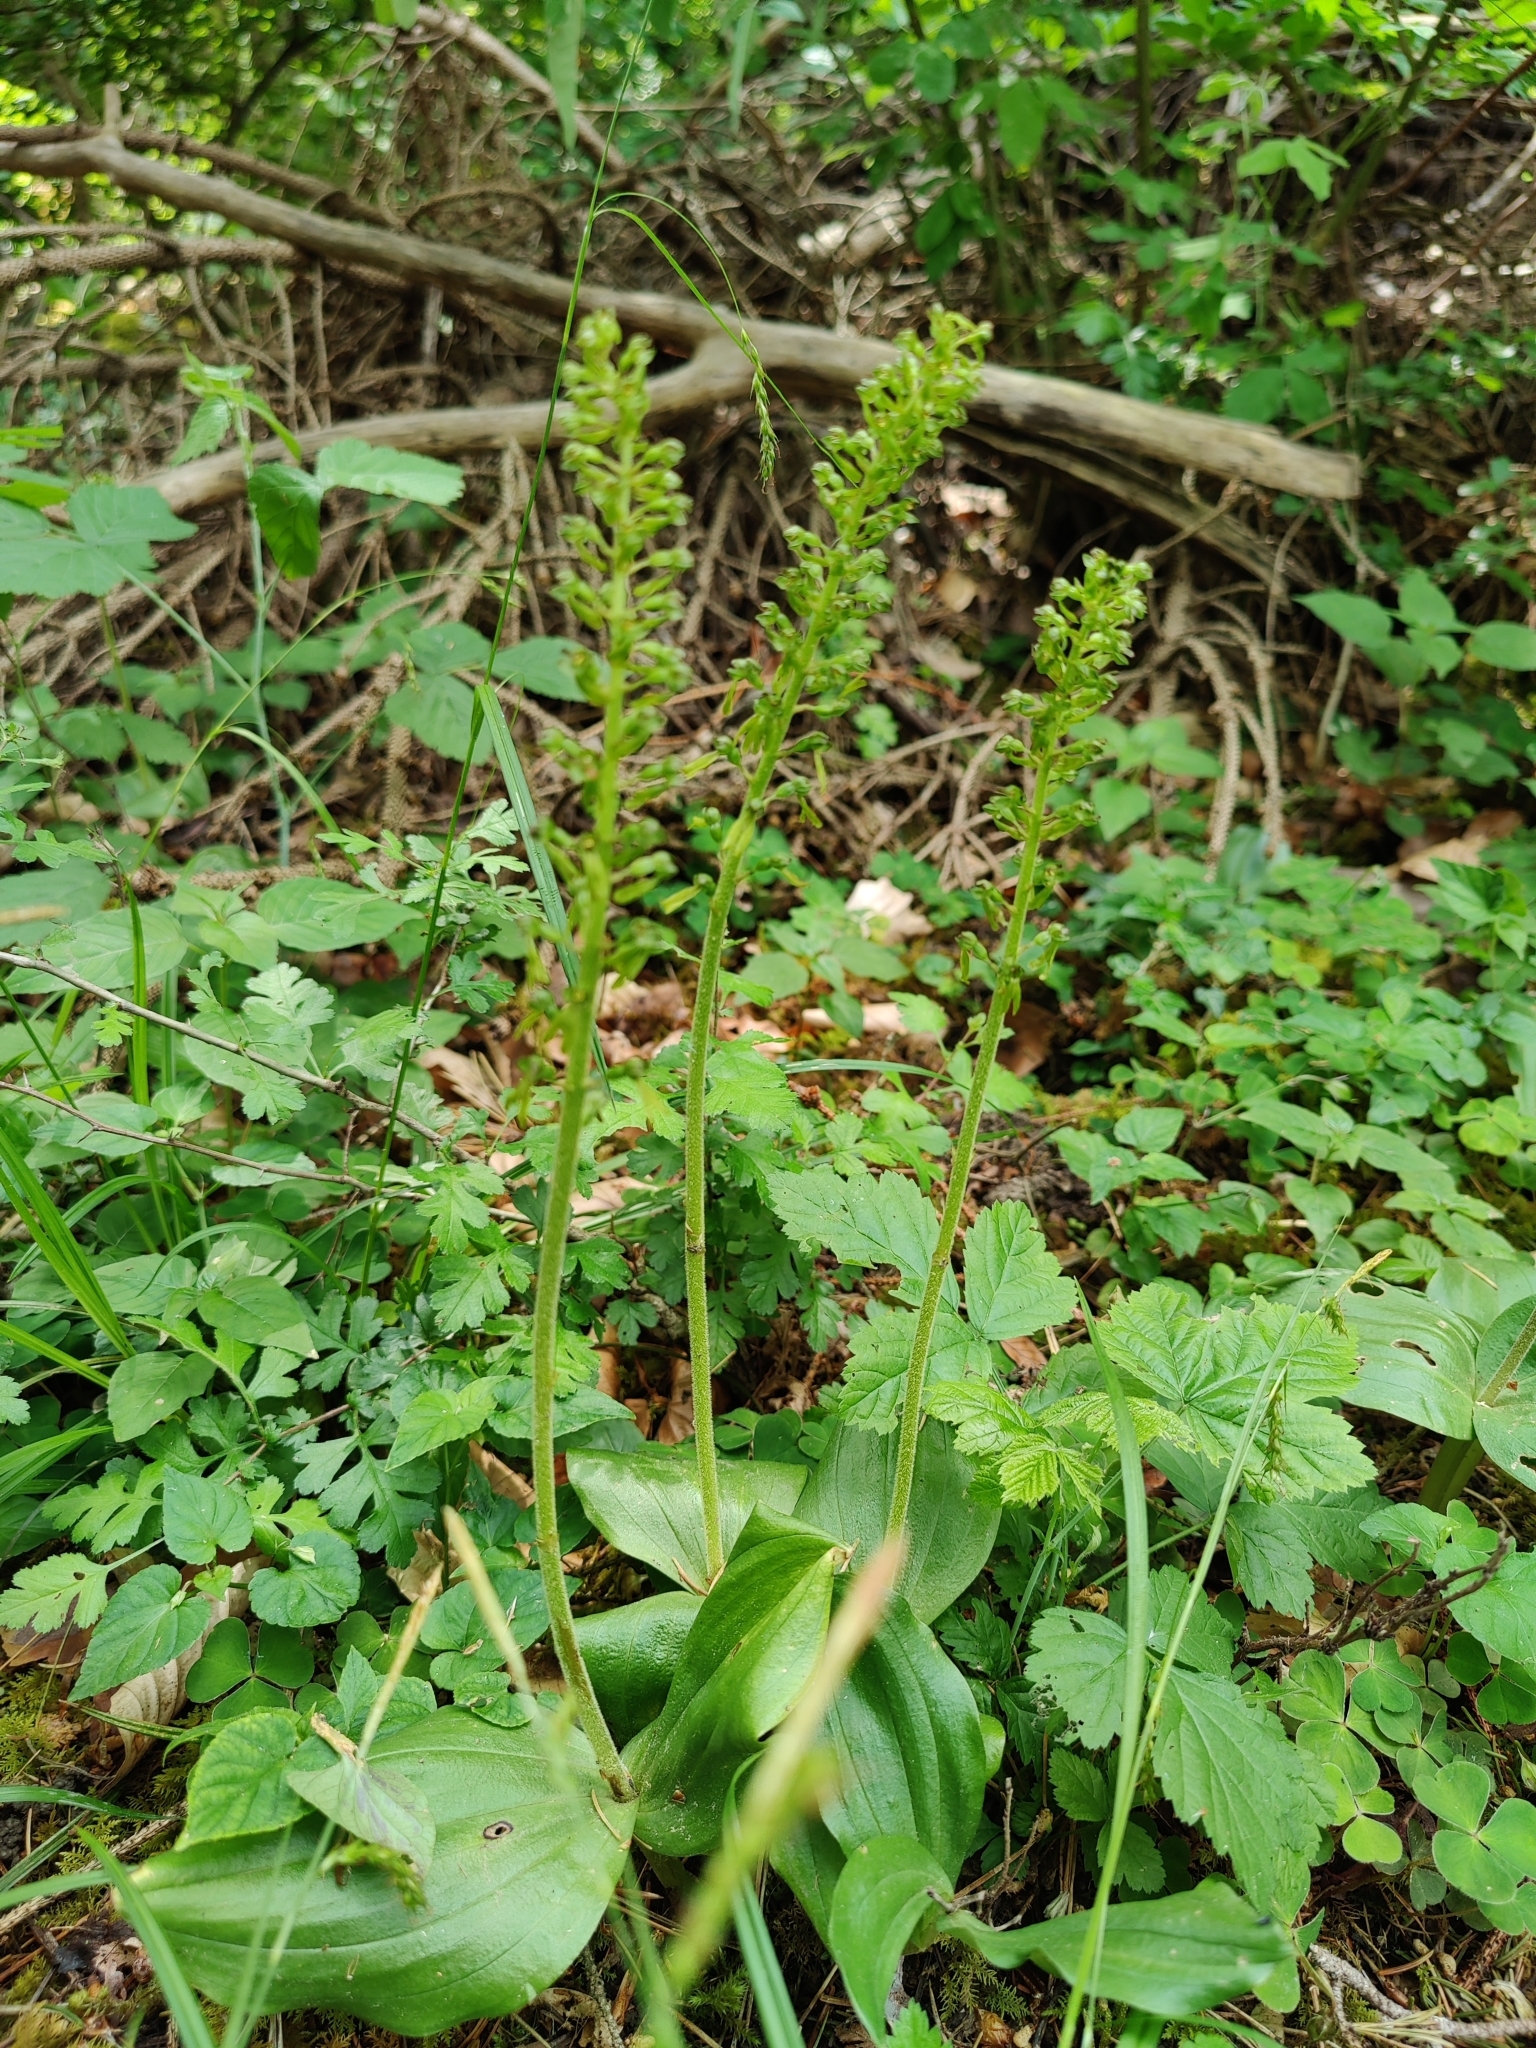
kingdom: Plantae
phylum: Tracheophyta
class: Liliopsida
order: Asparagales
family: Orchidaceae
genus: Neottia
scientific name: Neottia ovata
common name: Common twayblade
